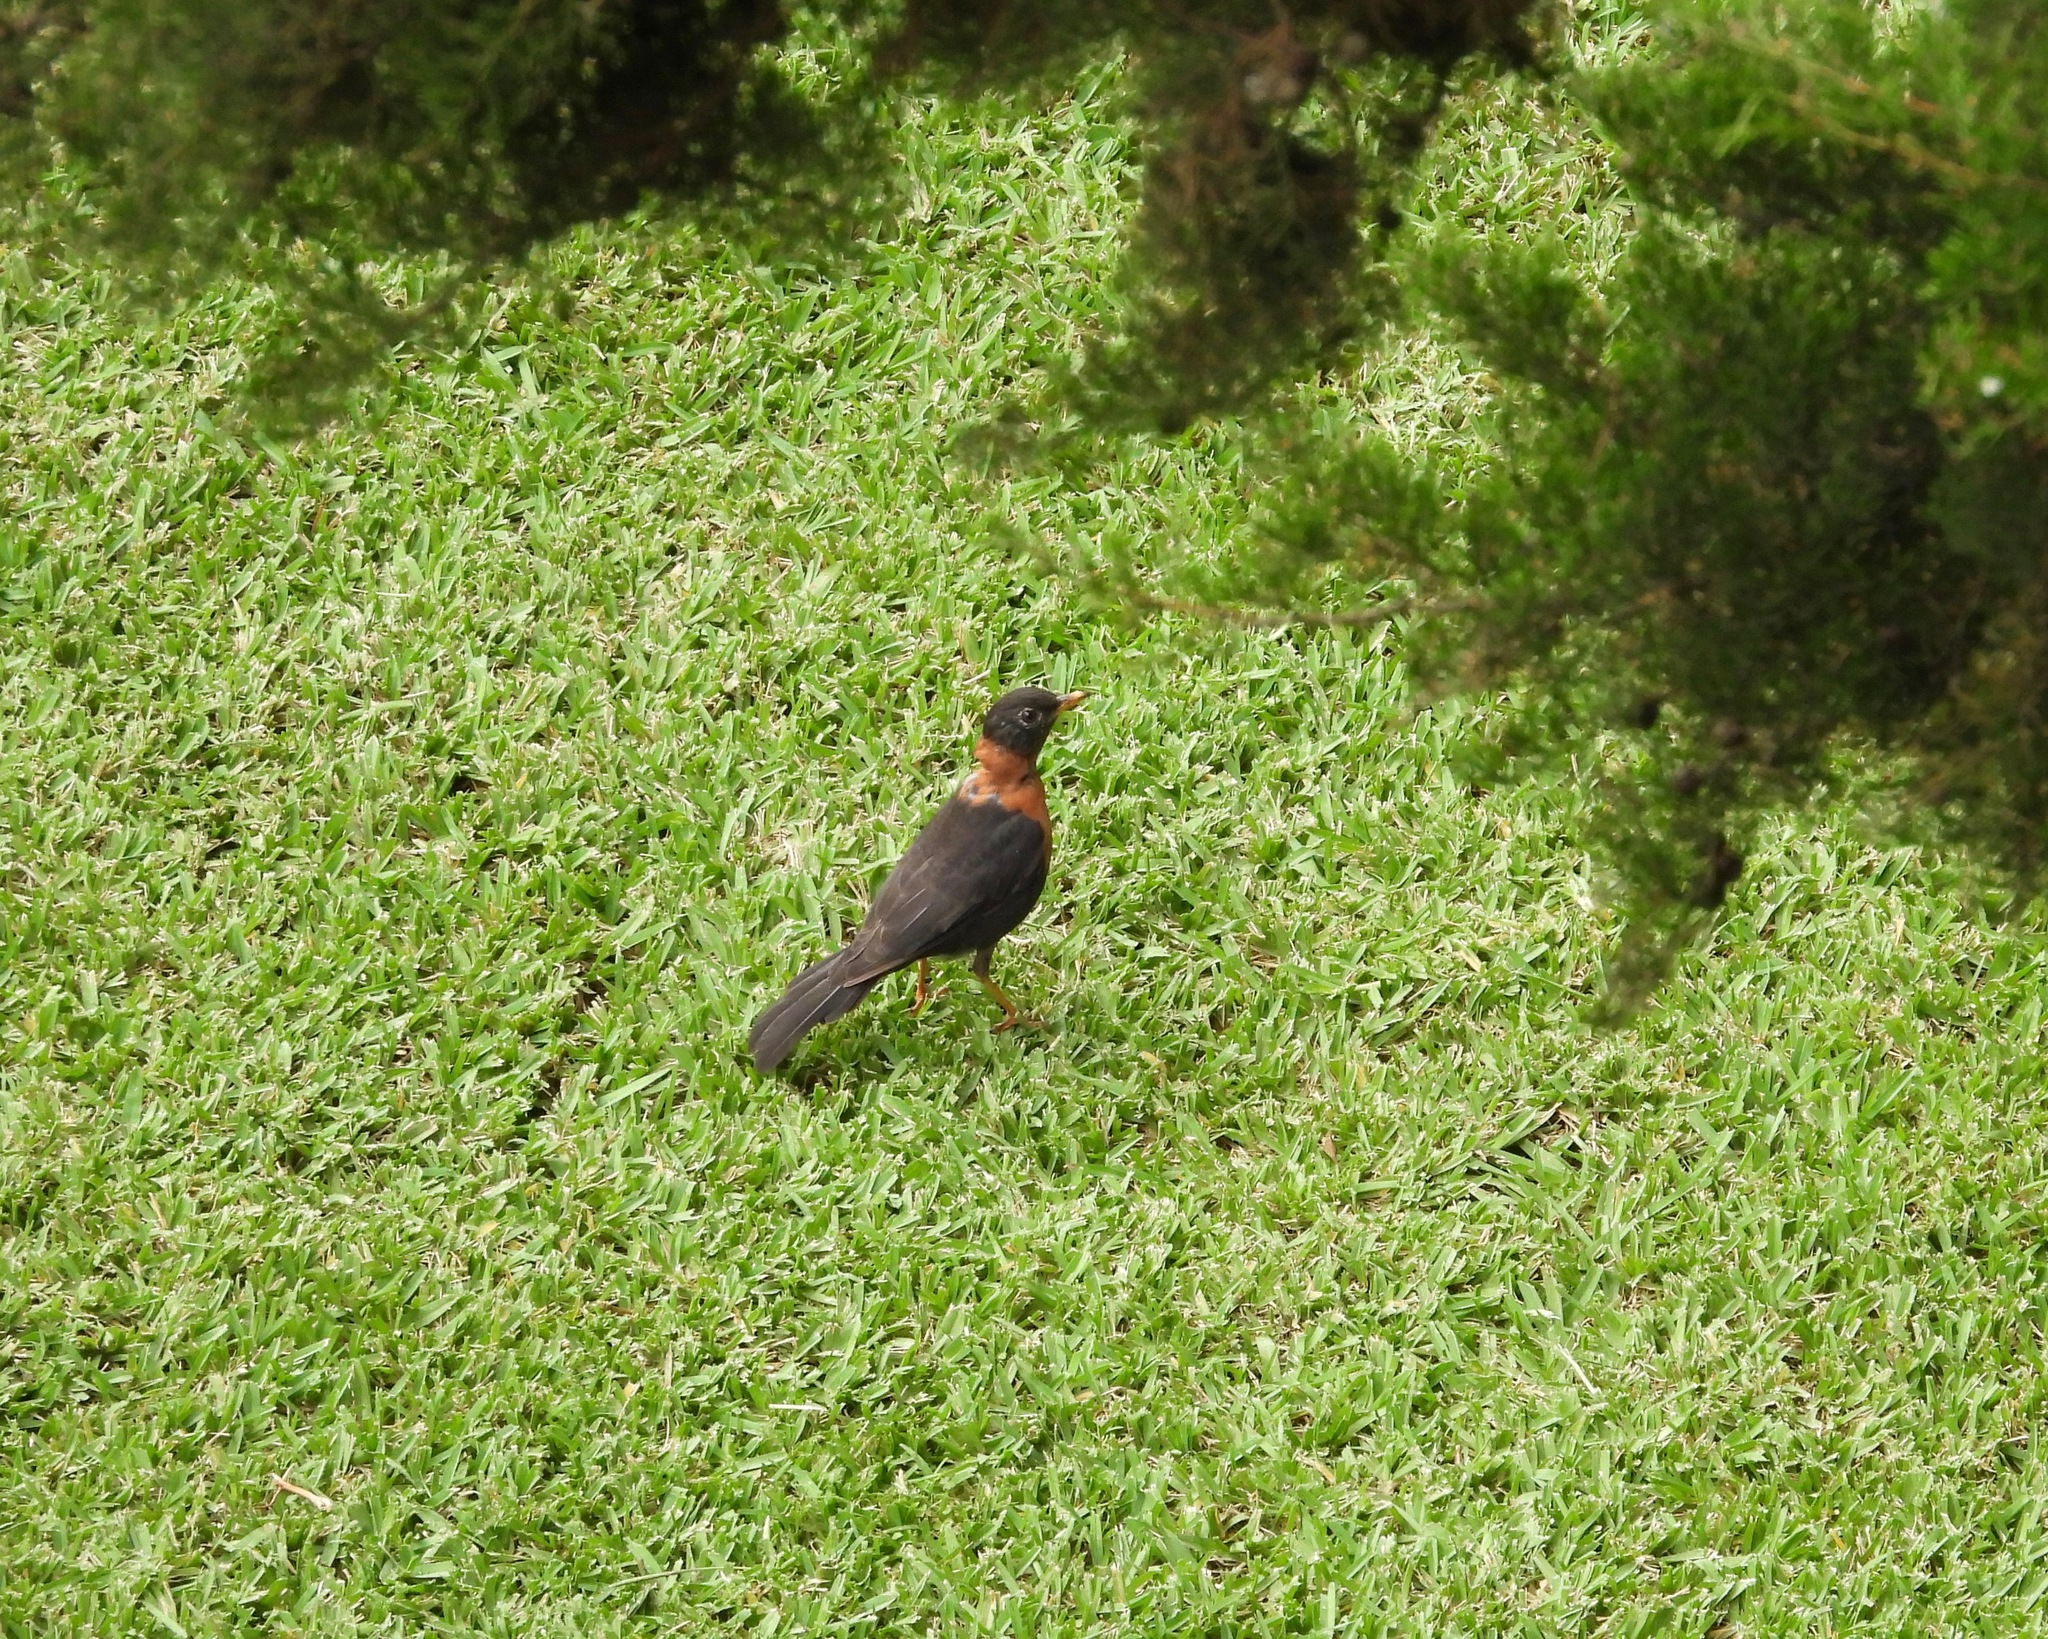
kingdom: Animalia
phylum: Chordata
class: Aves
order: Passeriformes
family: Turdidae
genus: Turdus
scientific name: Turdus rufitorques
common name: Rufous-collared thrush
